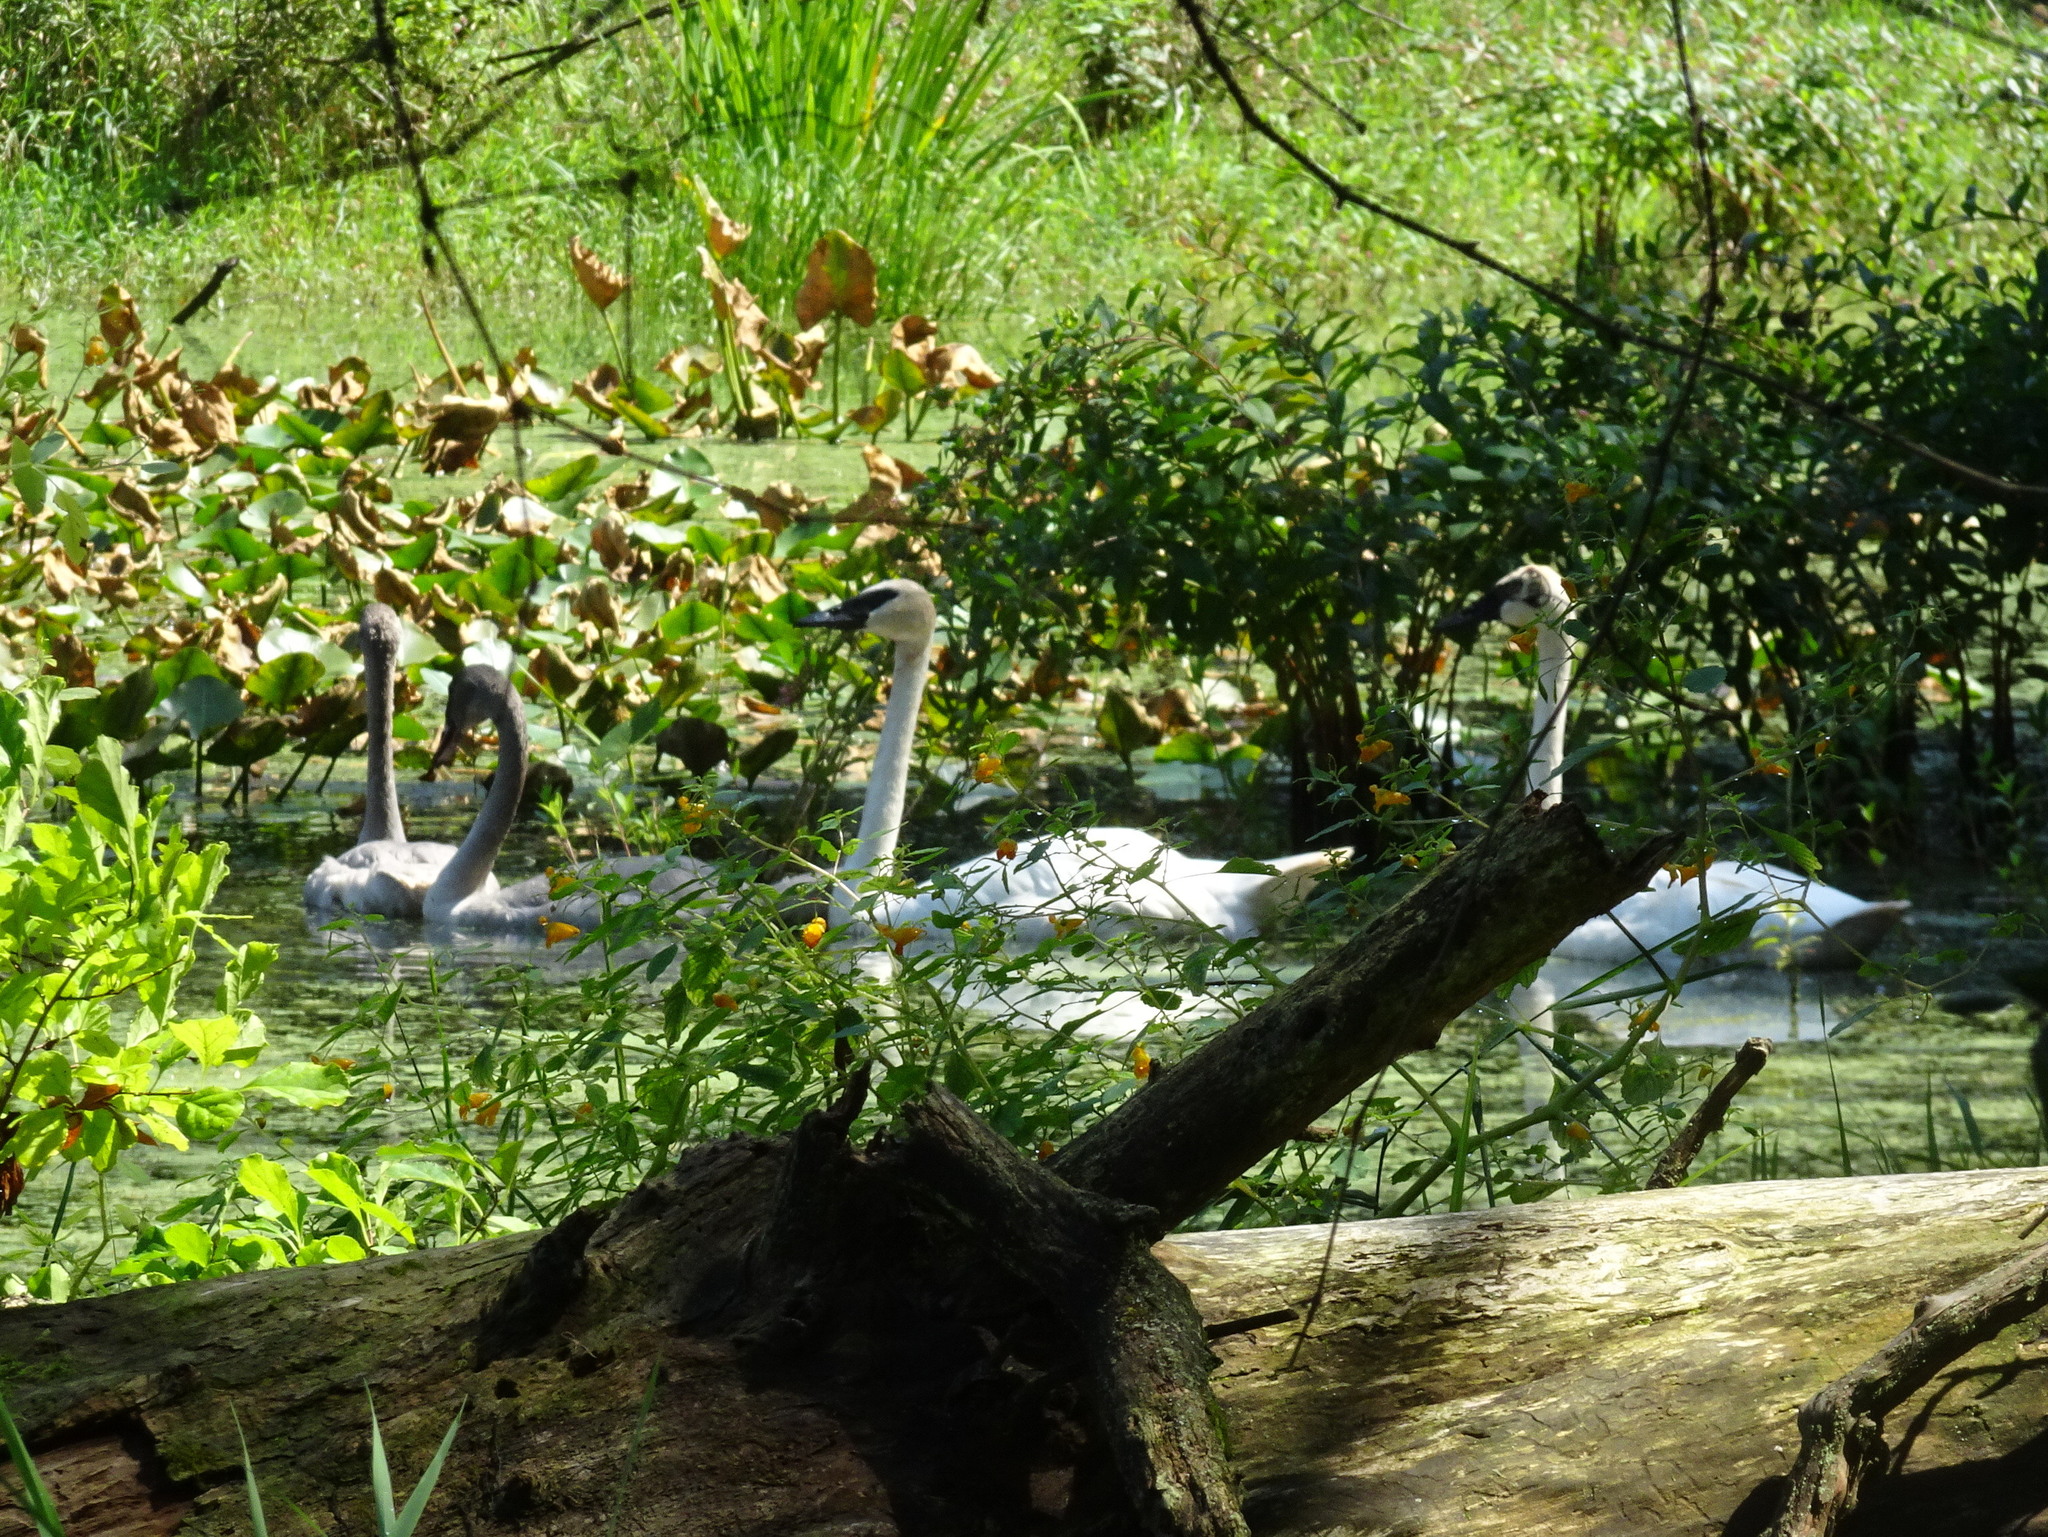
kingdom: Animalia
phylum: Chordata
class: Aves
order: Anseriformes
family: Anatidae
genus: Cygnus
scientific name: Cygnus buccinator
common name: Trumpeter swan
